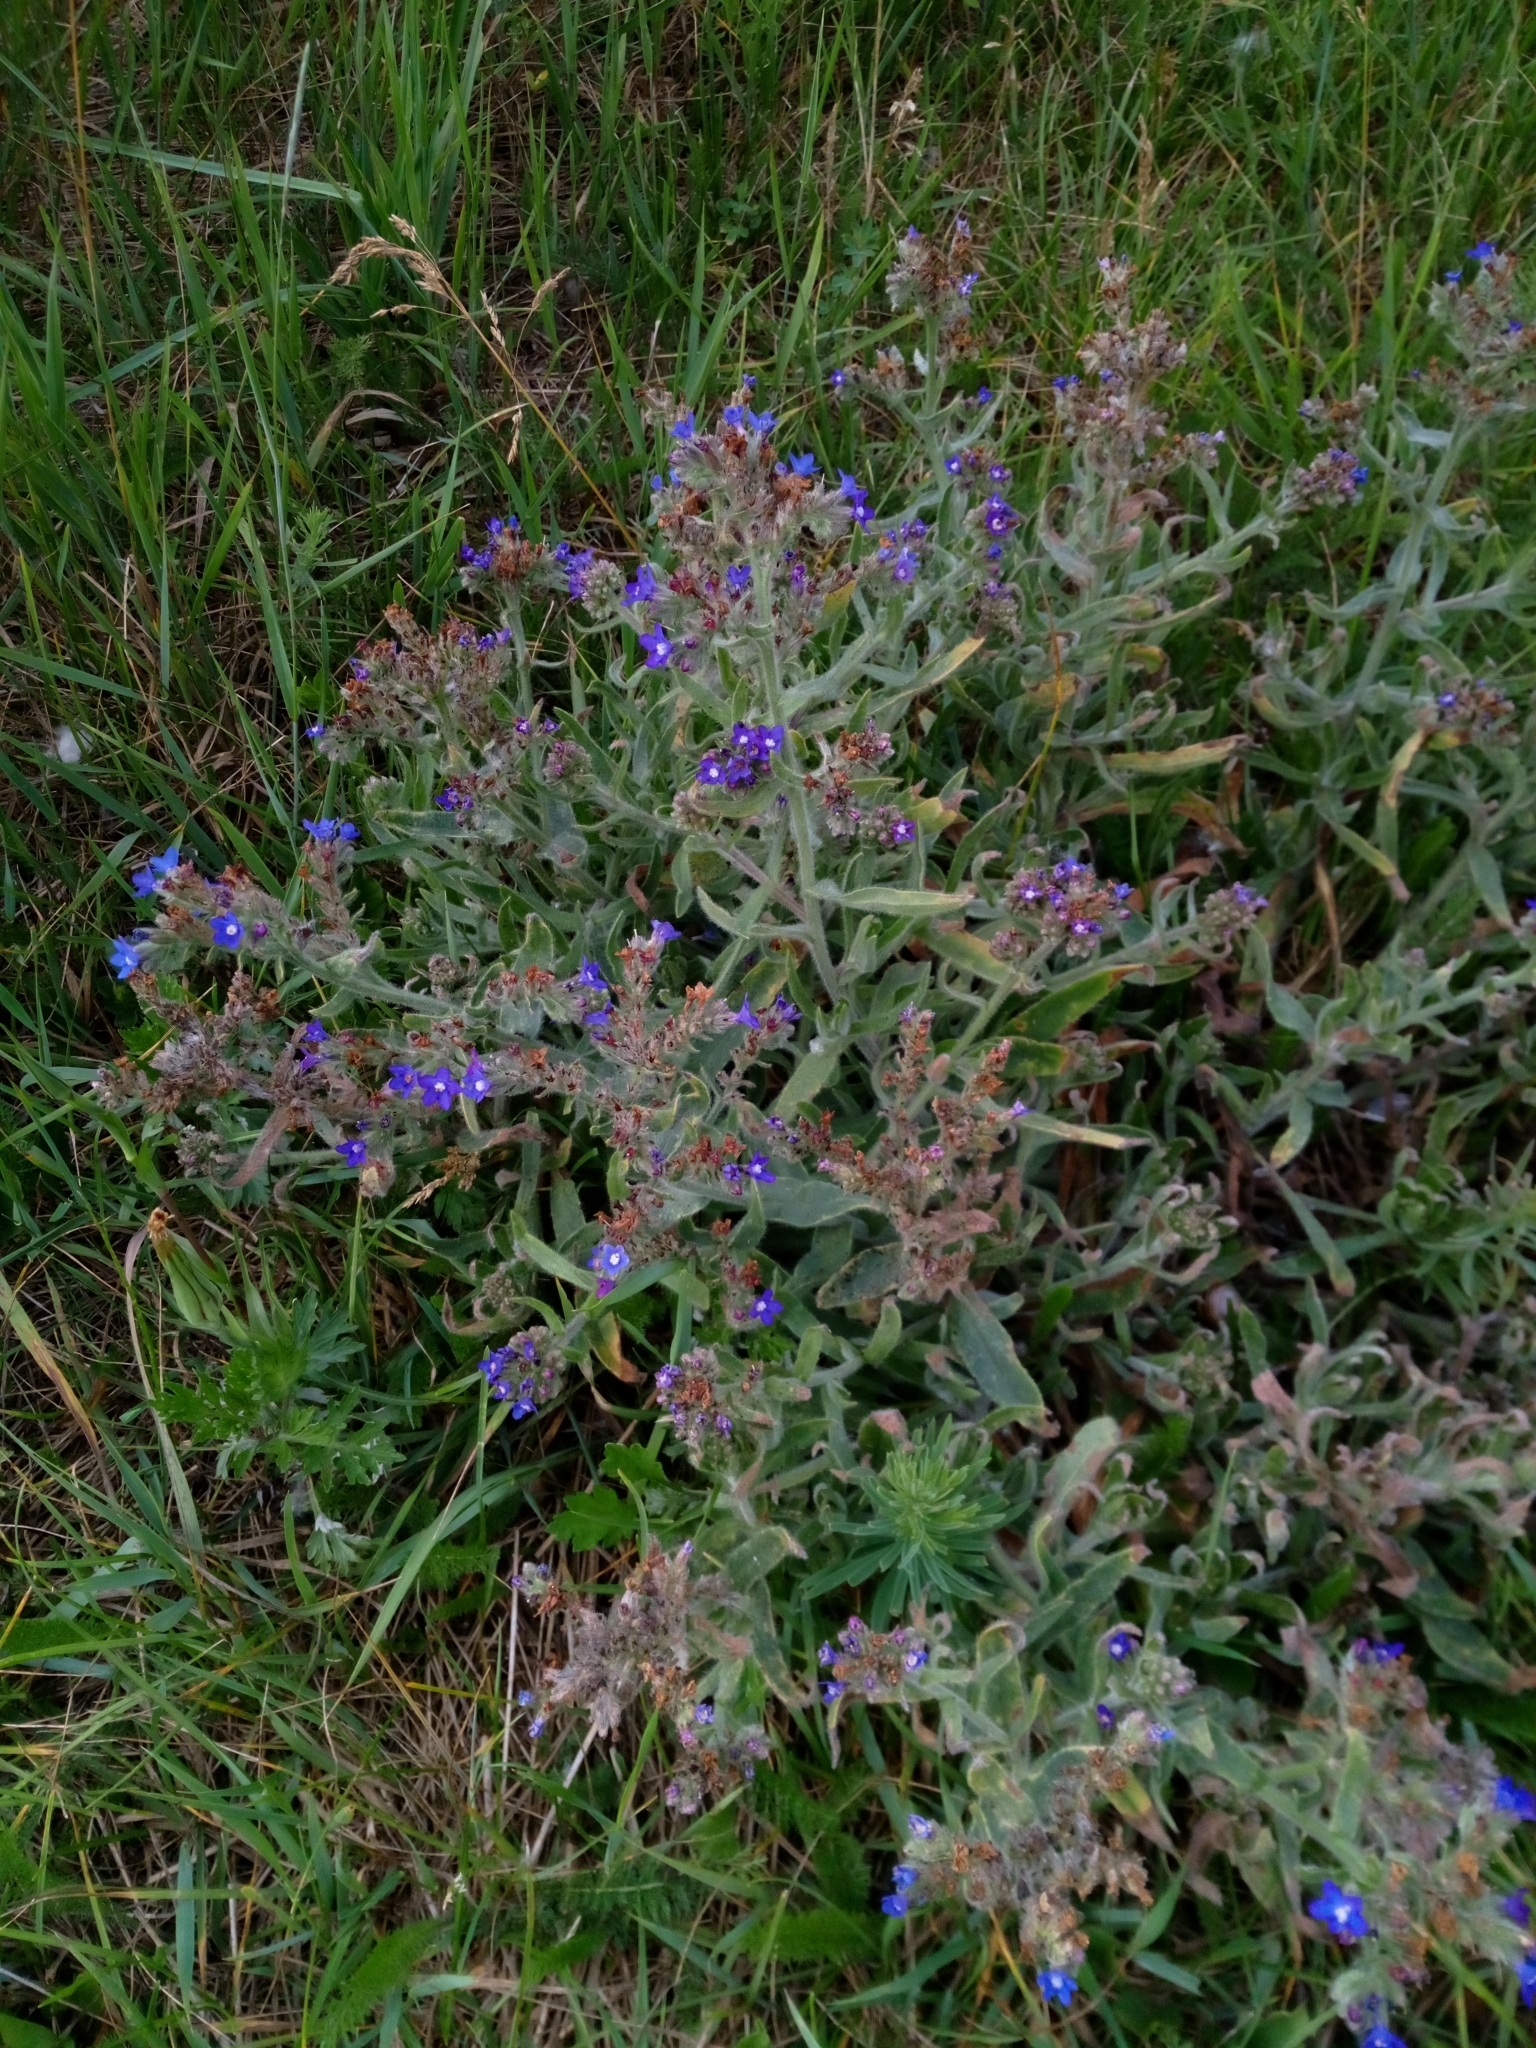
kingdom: Plantae
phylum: Tracheophyta
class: Magnoliopsida
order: Boraginales
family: Boraginaceae
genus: Anchusa
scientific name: Anchusa officinalis
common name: Alkanet
